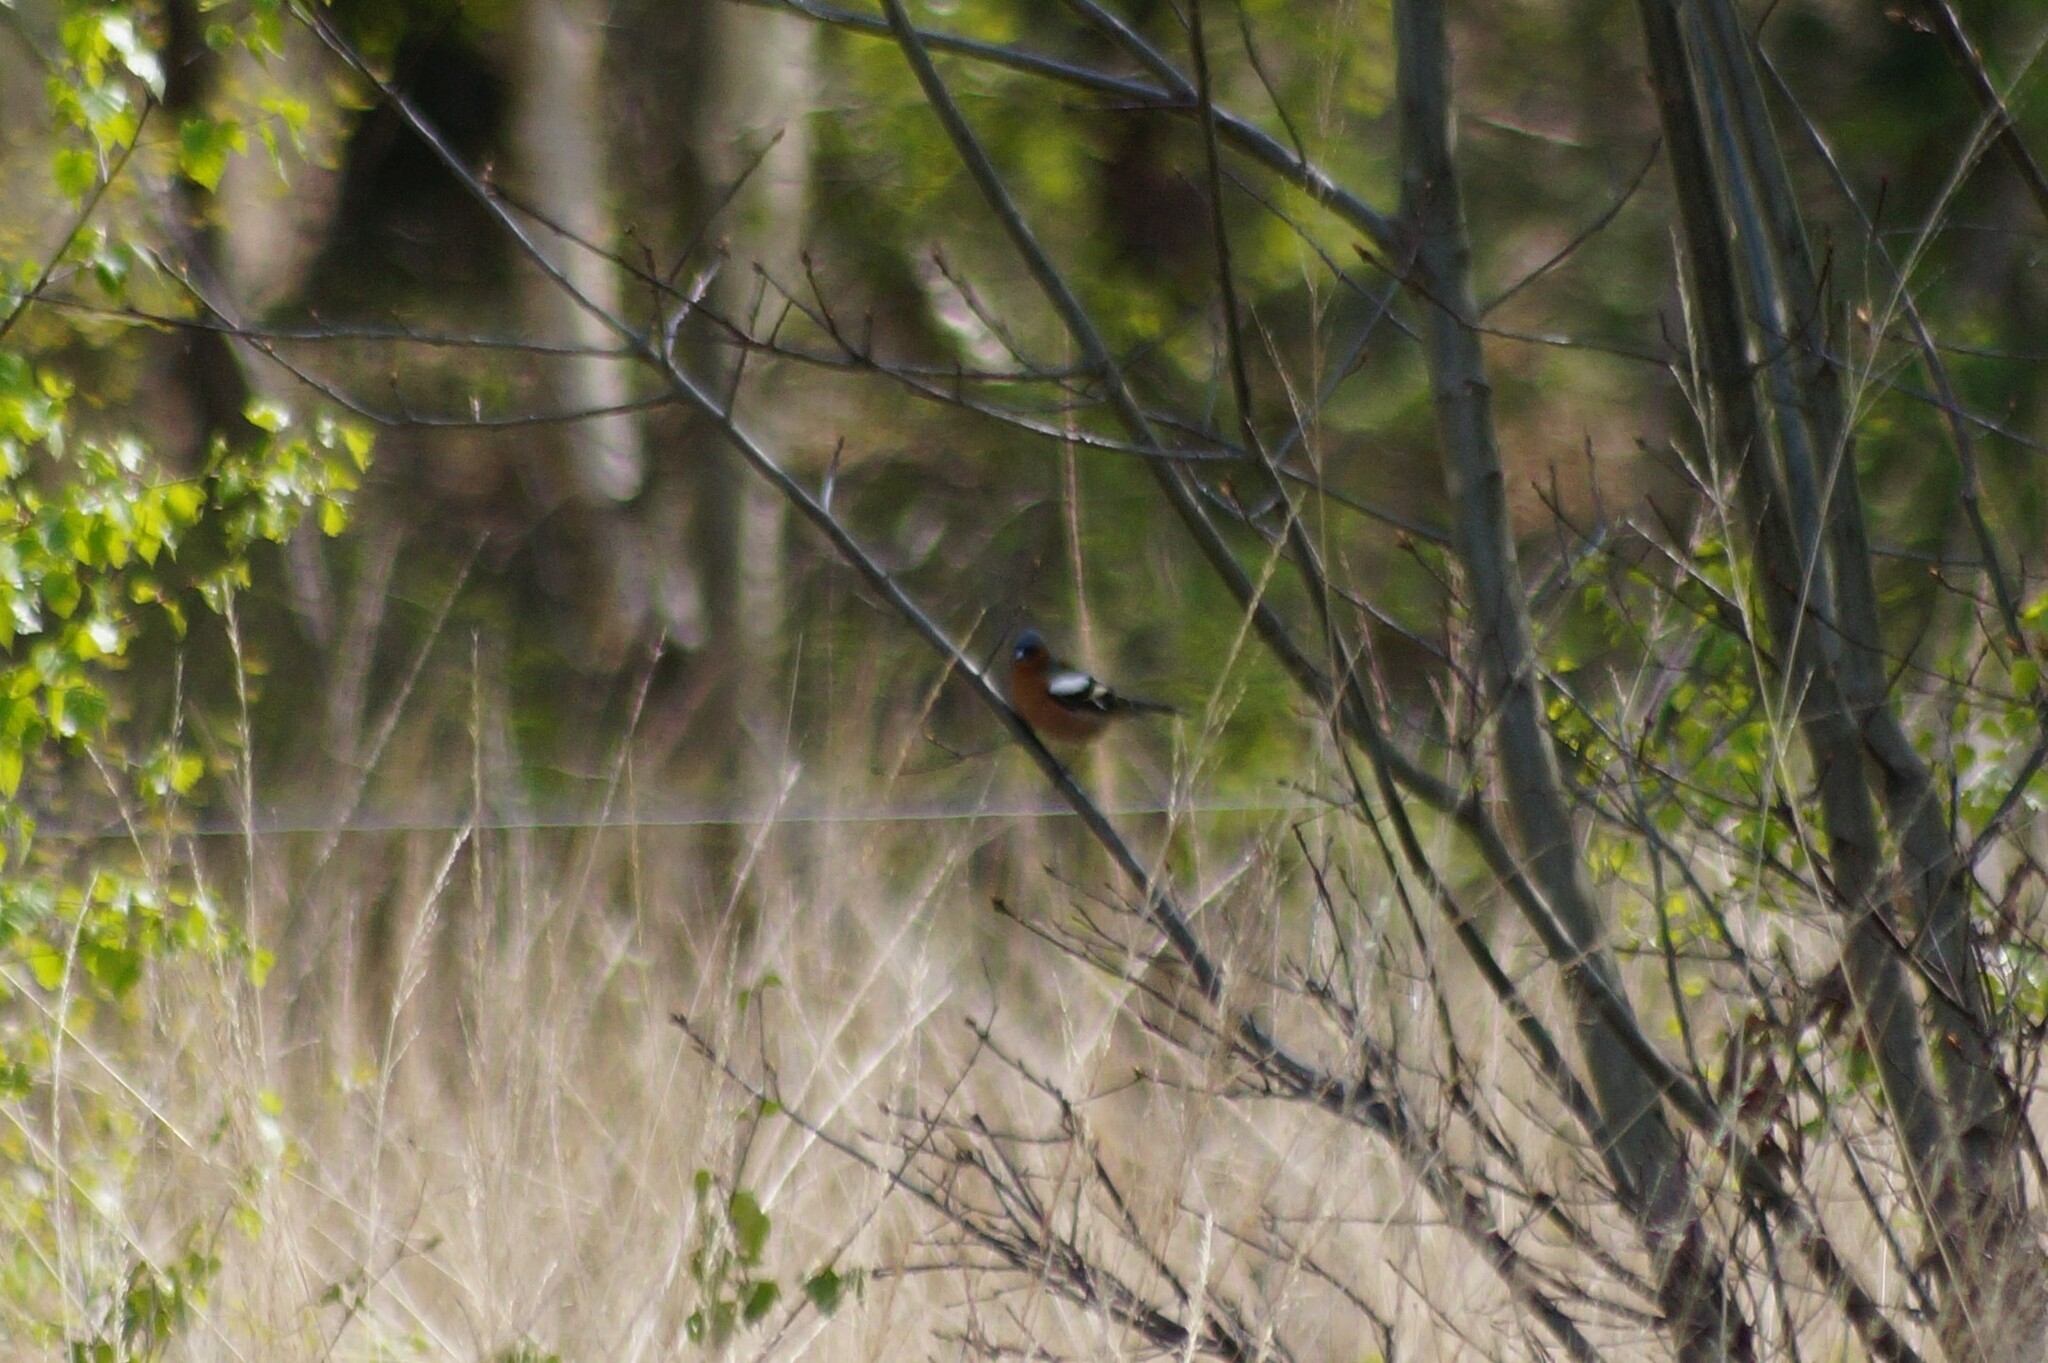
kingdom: Animalia
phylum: Chordata
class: Aves
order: Passeriformes
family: Fringillidae
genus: Fringilla
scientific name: Fringilla coelebs
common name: Common chaffinch
